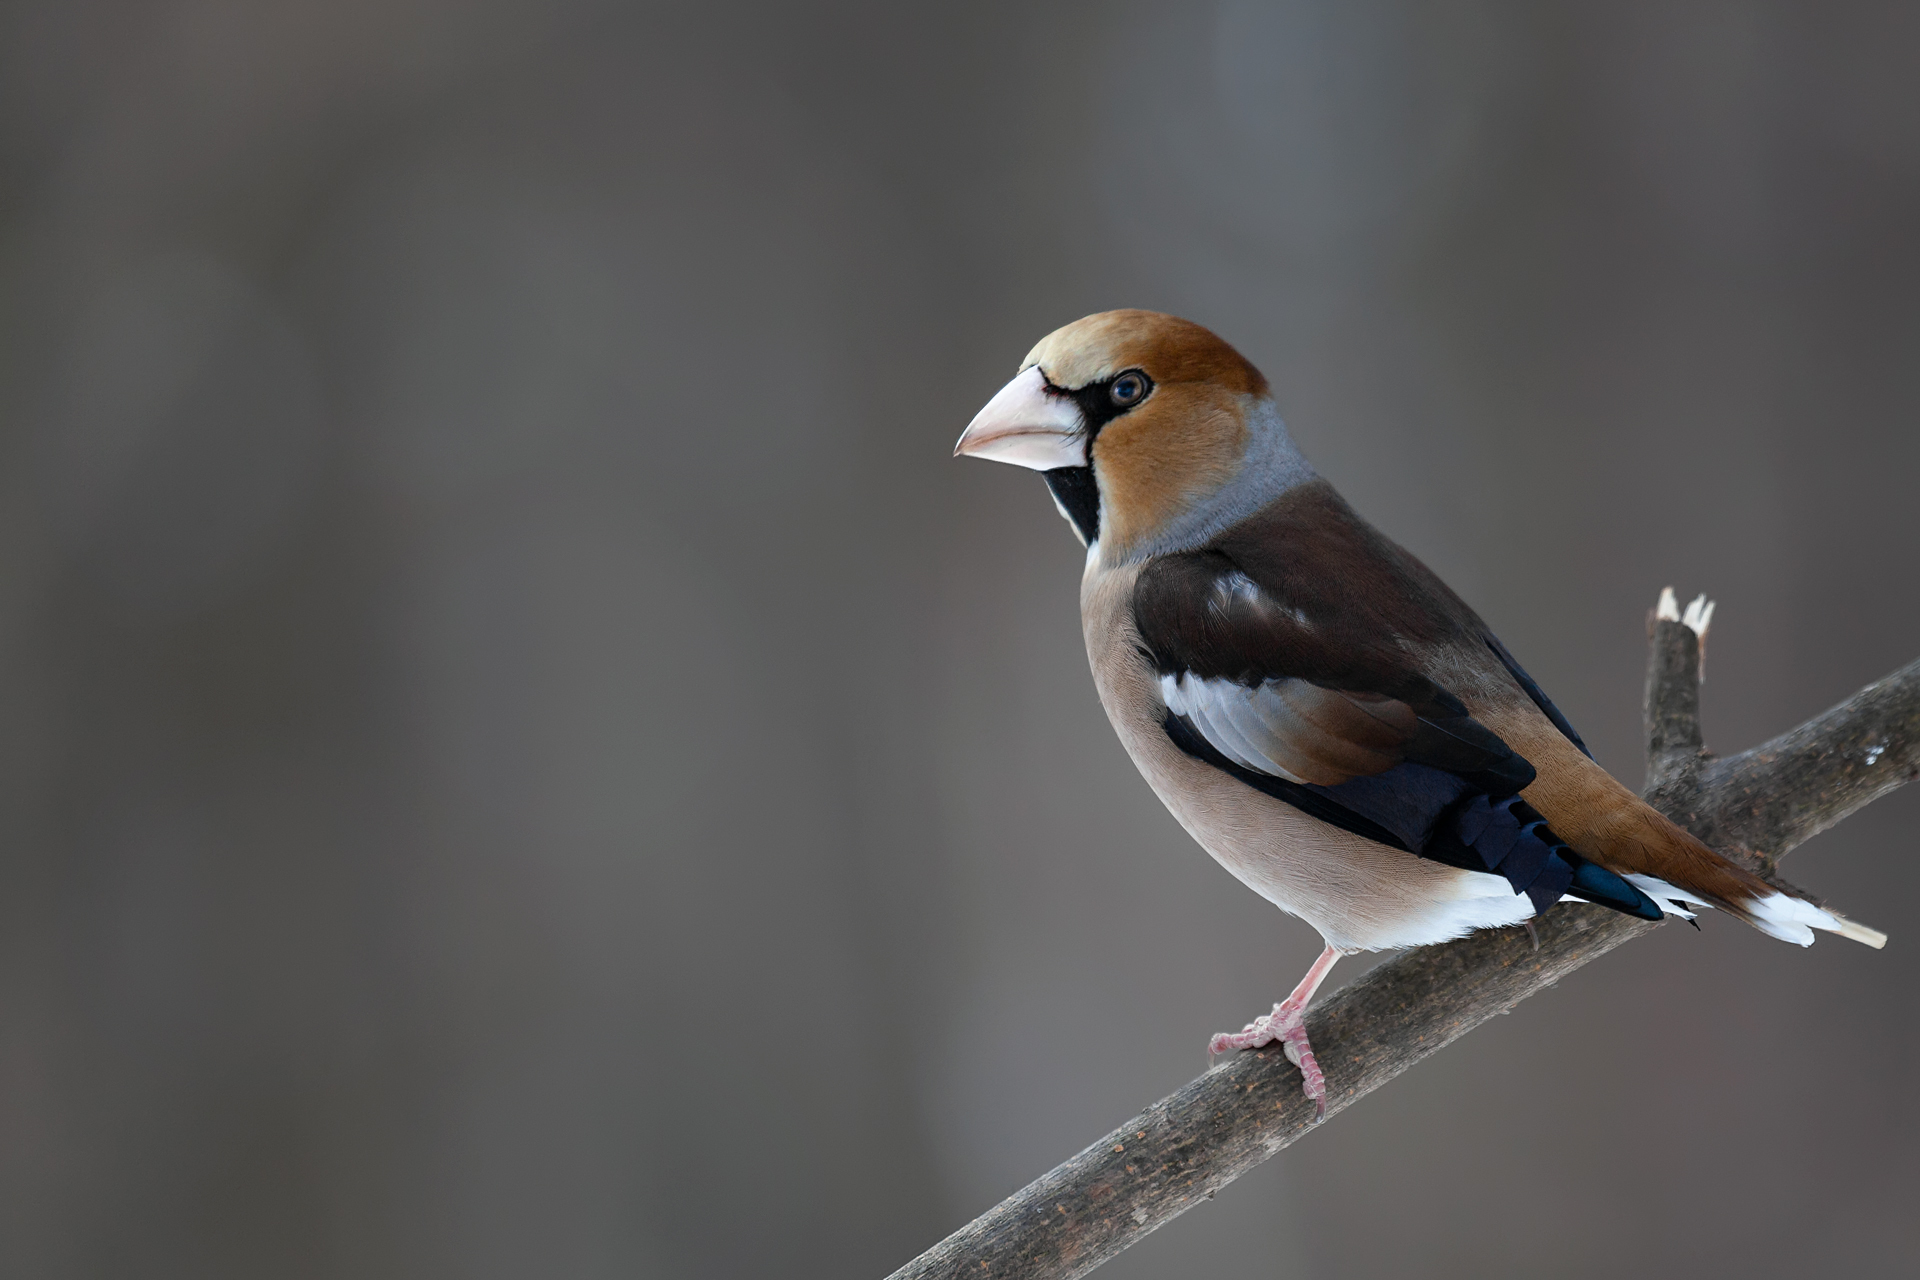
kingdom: Animalia
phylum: Chordata
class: Aves
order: Passeriformes
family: Fringillidae
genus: Coccothraustes
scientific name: Coccothraustes coccothraustes
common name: Hawfinch
